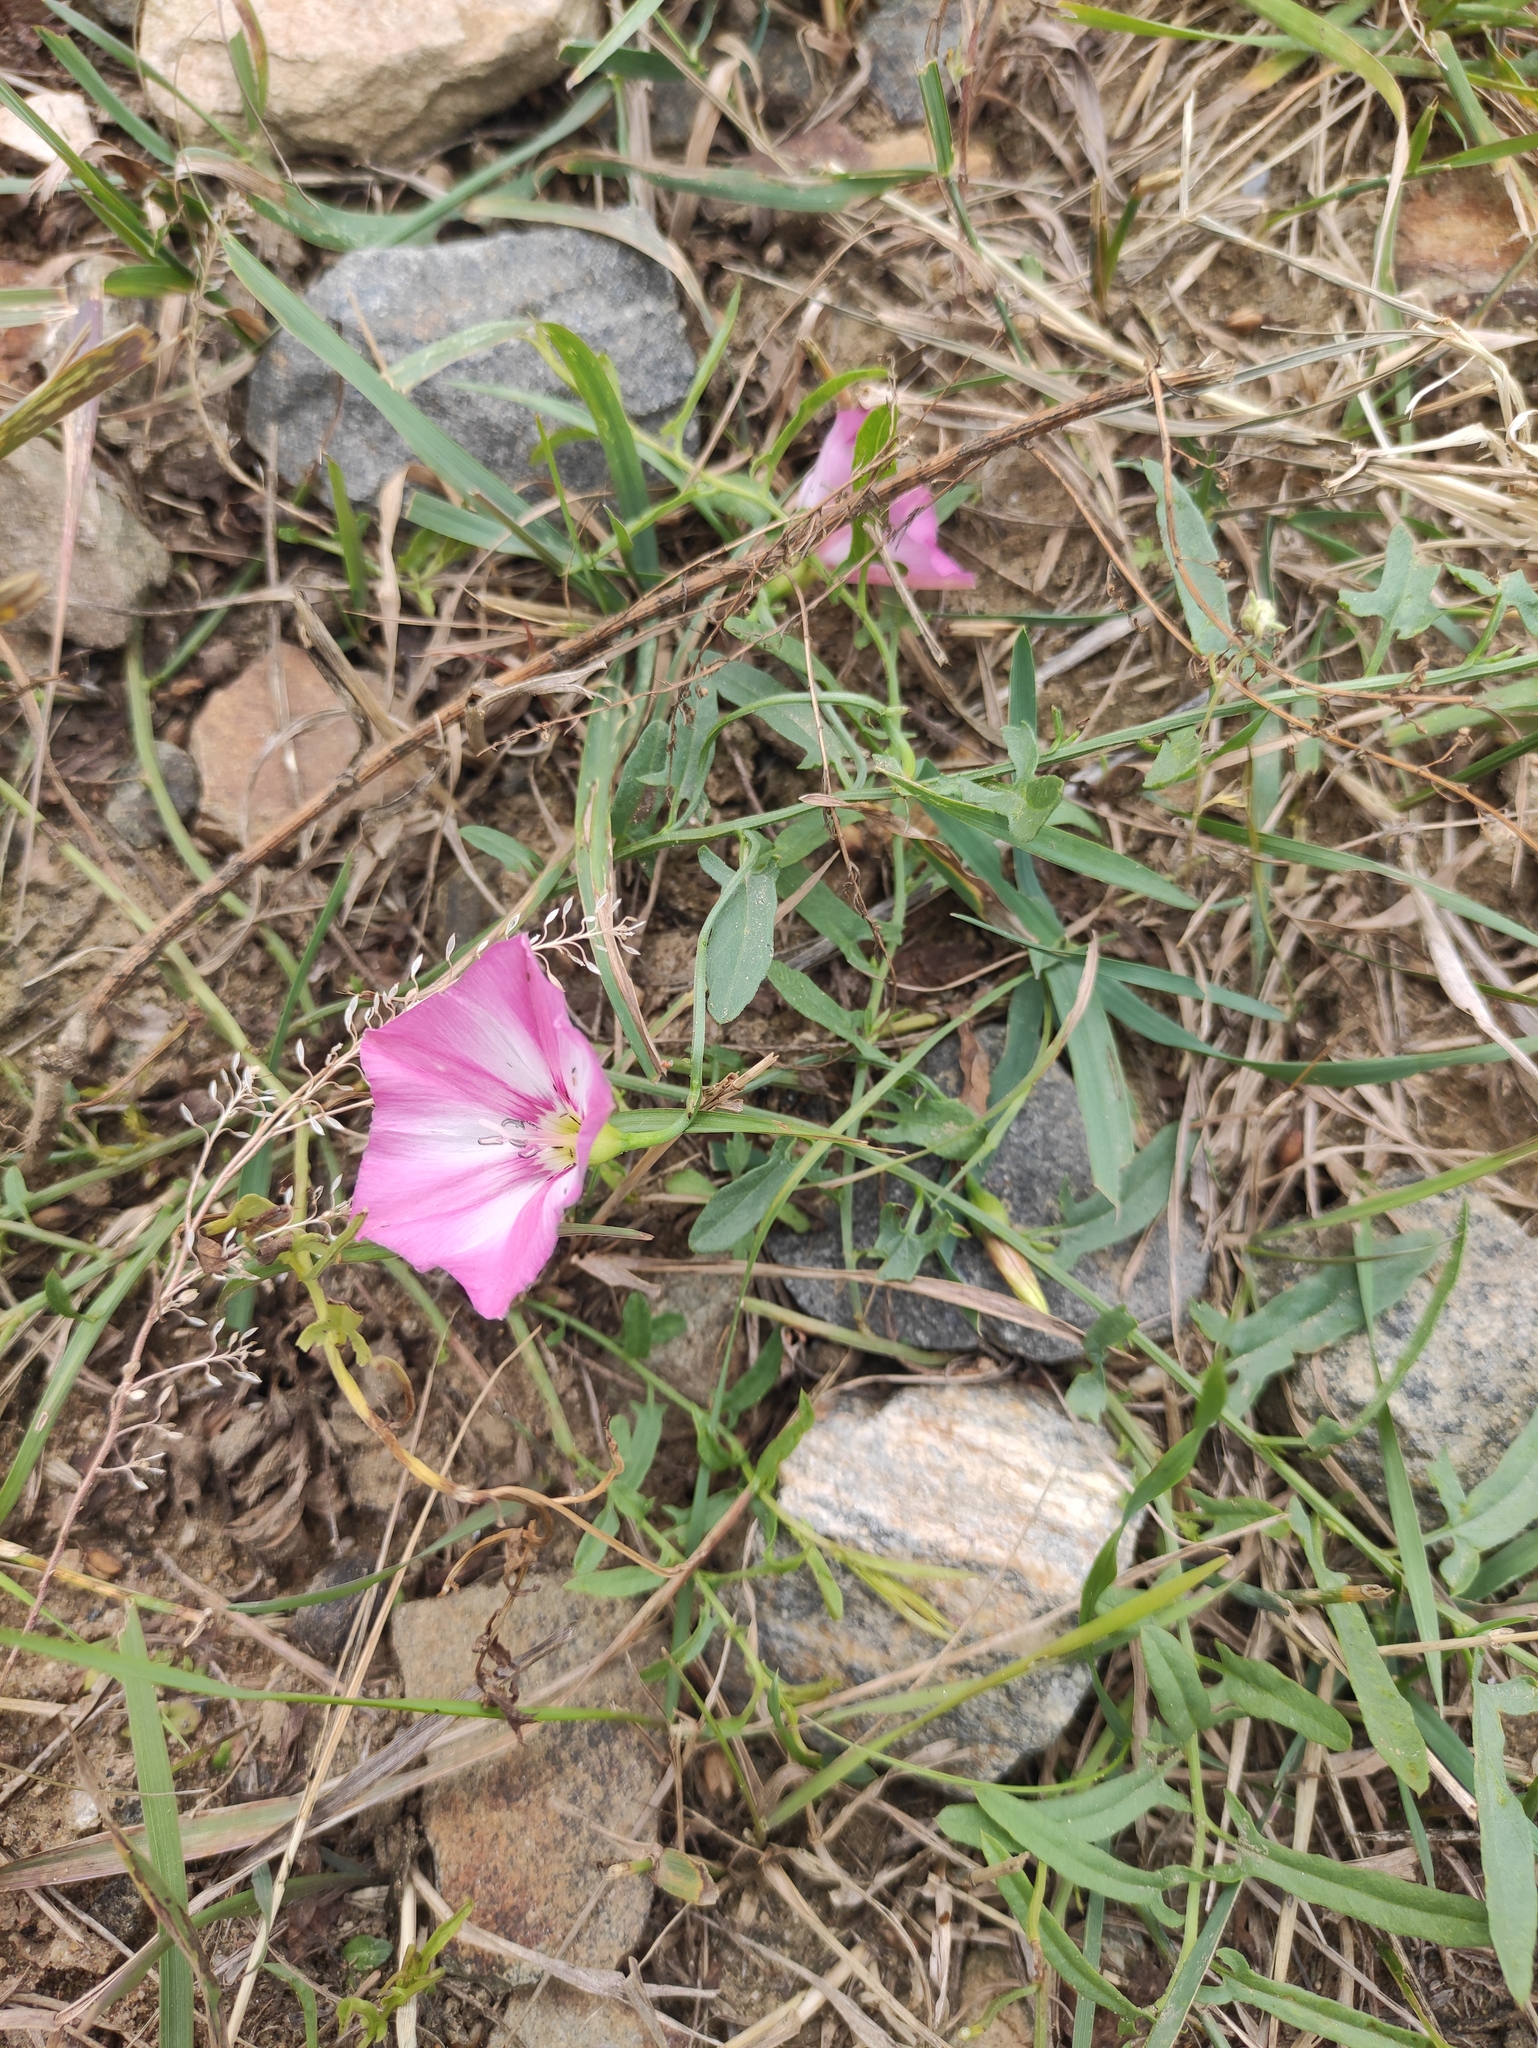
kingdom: Plantae
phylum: Tracheophyta
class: Magnoliopsida
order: Solanales
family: Convolvulaceae
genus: Convolvulus
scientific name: Convolvulus chinensis
